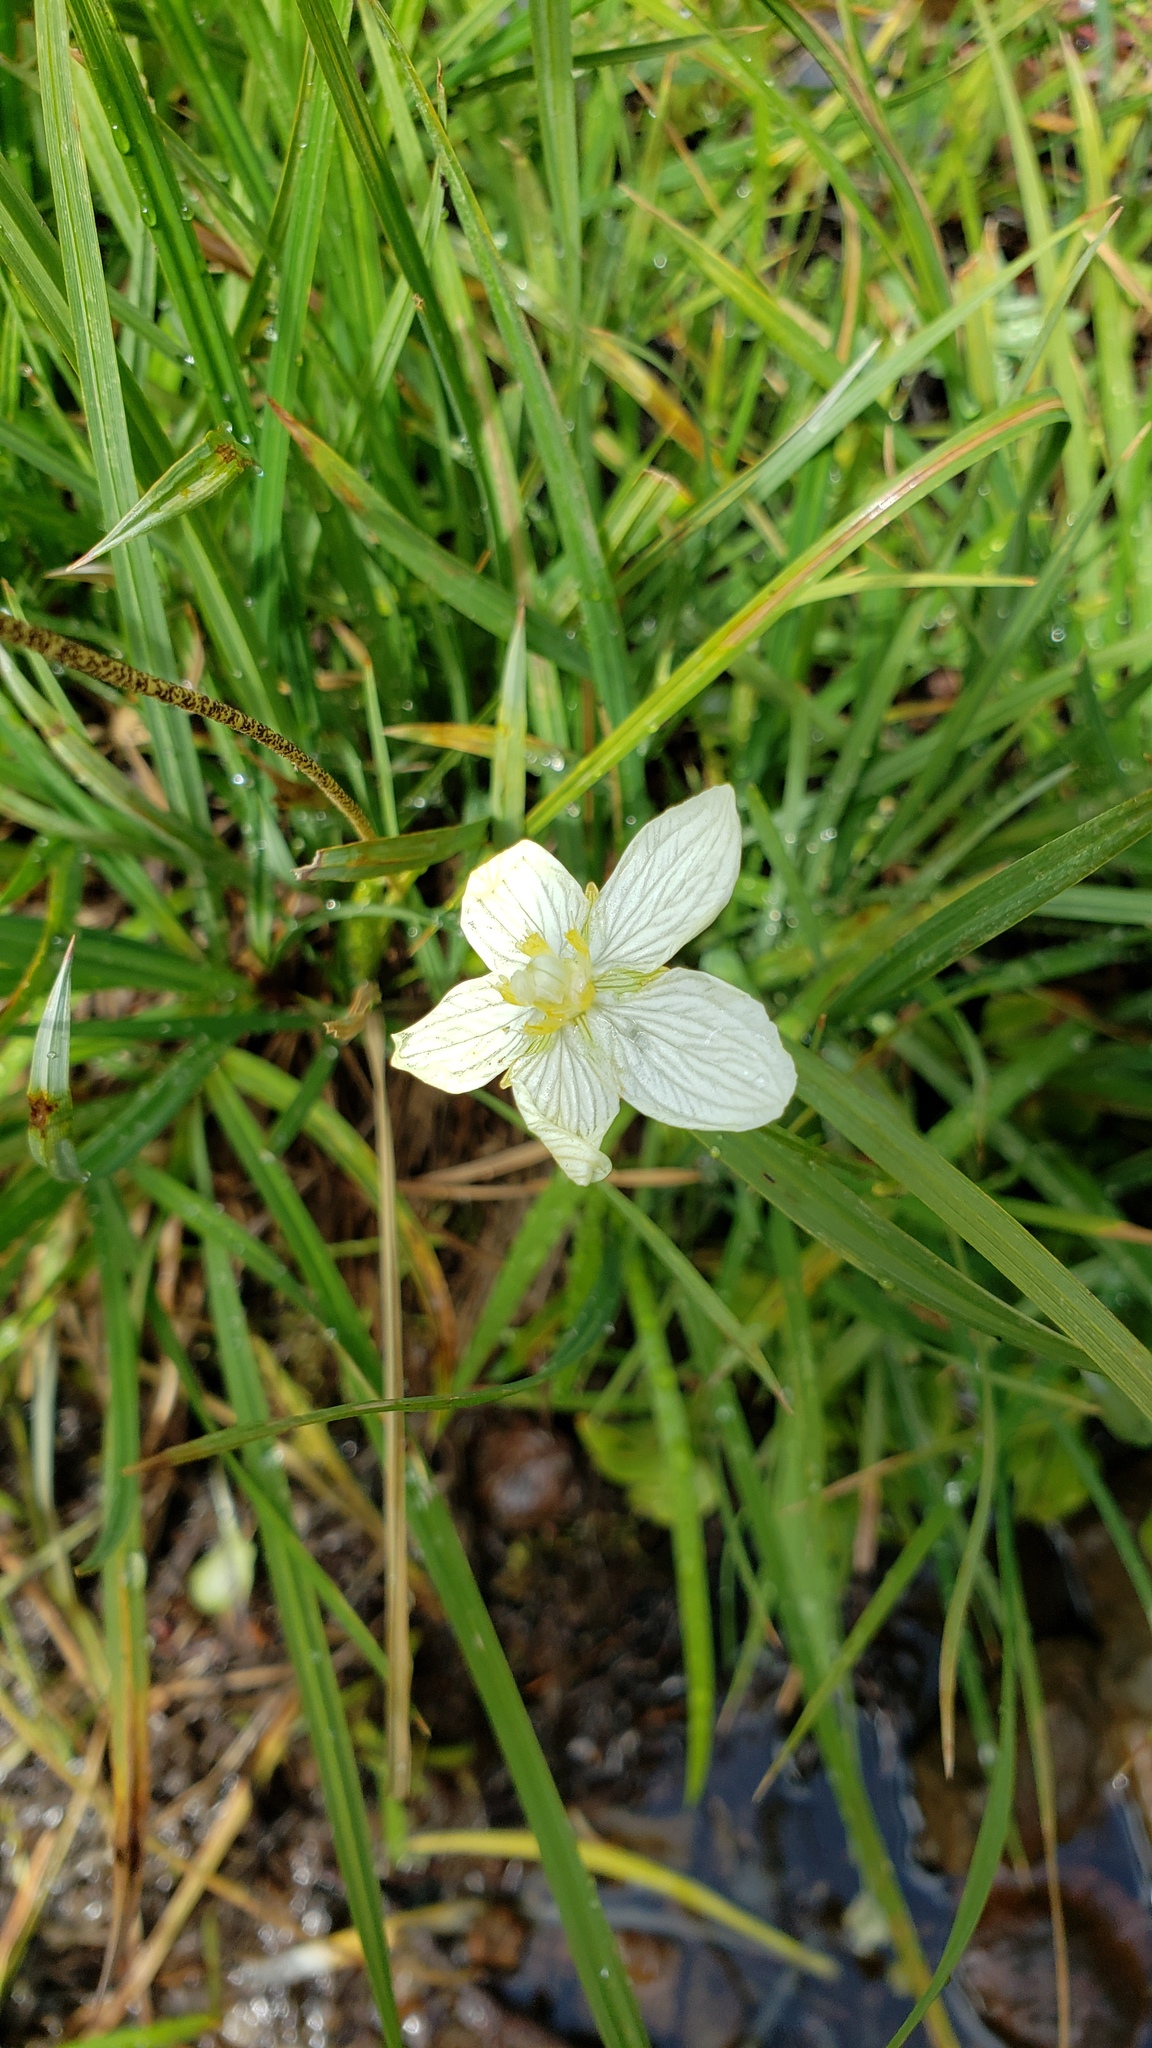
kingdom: Plantae
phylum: Tracheophyta
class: Magnoliopsida
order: Celastrales
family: Parnassiaceae
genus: Parnassia
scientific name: Parnassia palustris
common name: Grass-of-parnassus
